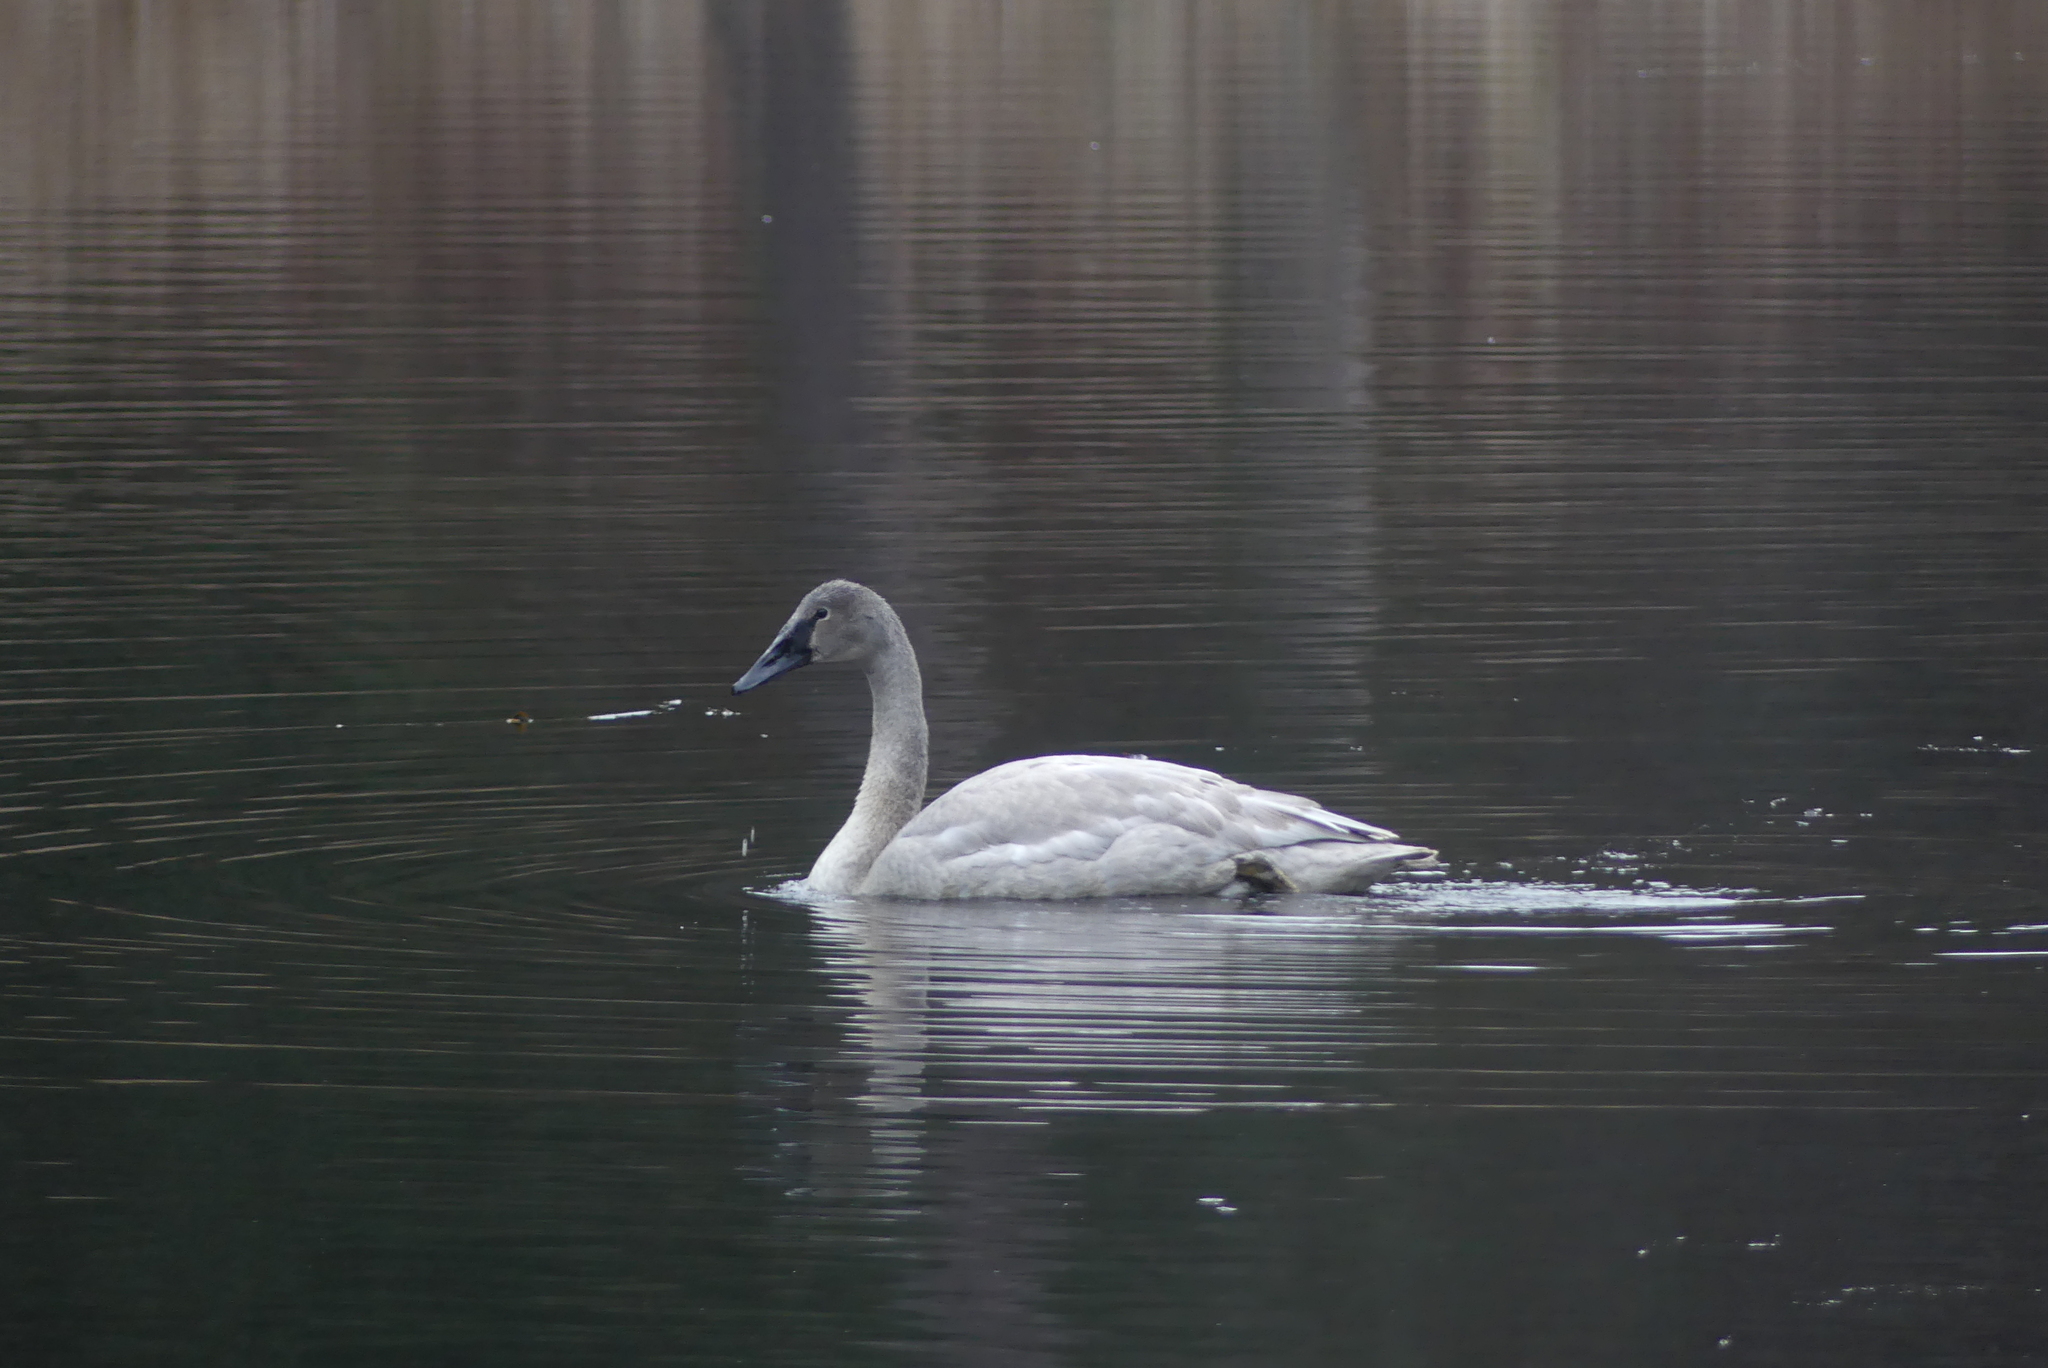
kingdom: Animalia
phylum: Chordata
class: Aves
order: Anseriformes
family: Anatidae
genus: Cygnus
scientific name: Cygnus buccinator
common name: Trumpeter swan
